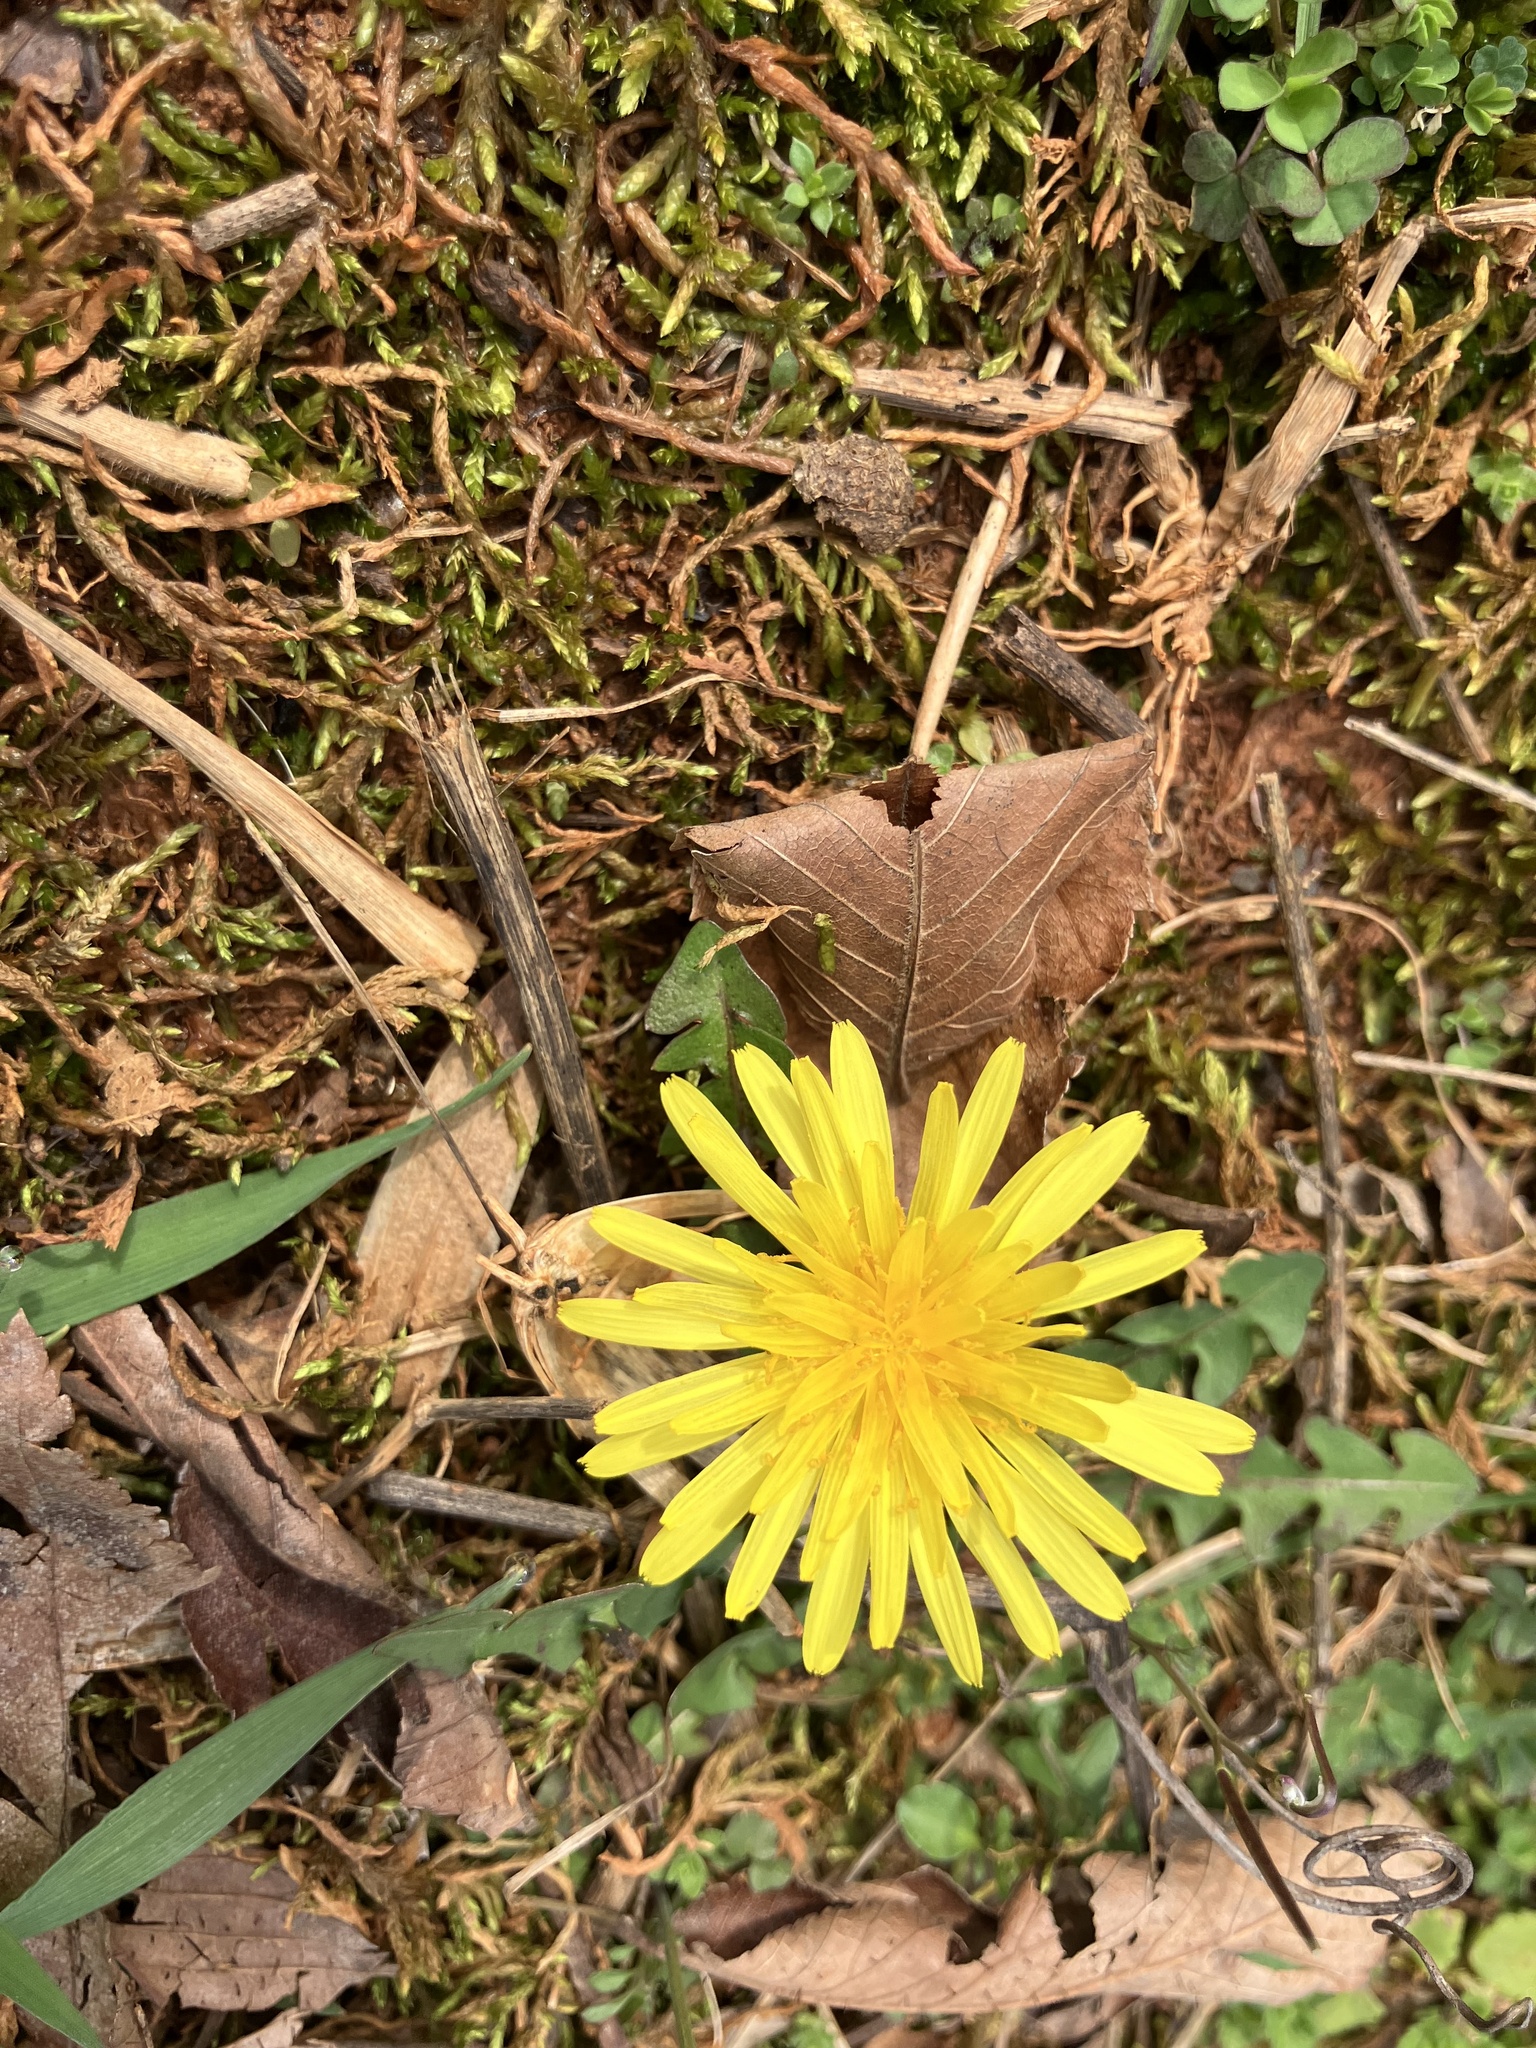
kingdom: Plantae
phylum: Tracheophyta
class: Magnoliopsida
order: Asterales
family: Asteraceae
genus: Taraxacum
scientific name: Taraxacum officinale
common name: Common dandelion
